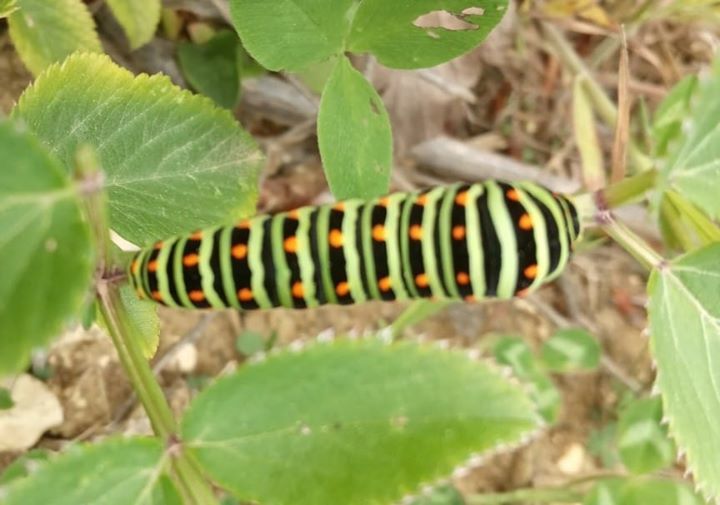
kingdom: Animalia
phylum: Arthropoda
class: Insecta
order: Lepidoptera
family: Papilionidae
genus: Papilio
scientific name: Papilio machaon
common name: Swallowtail
